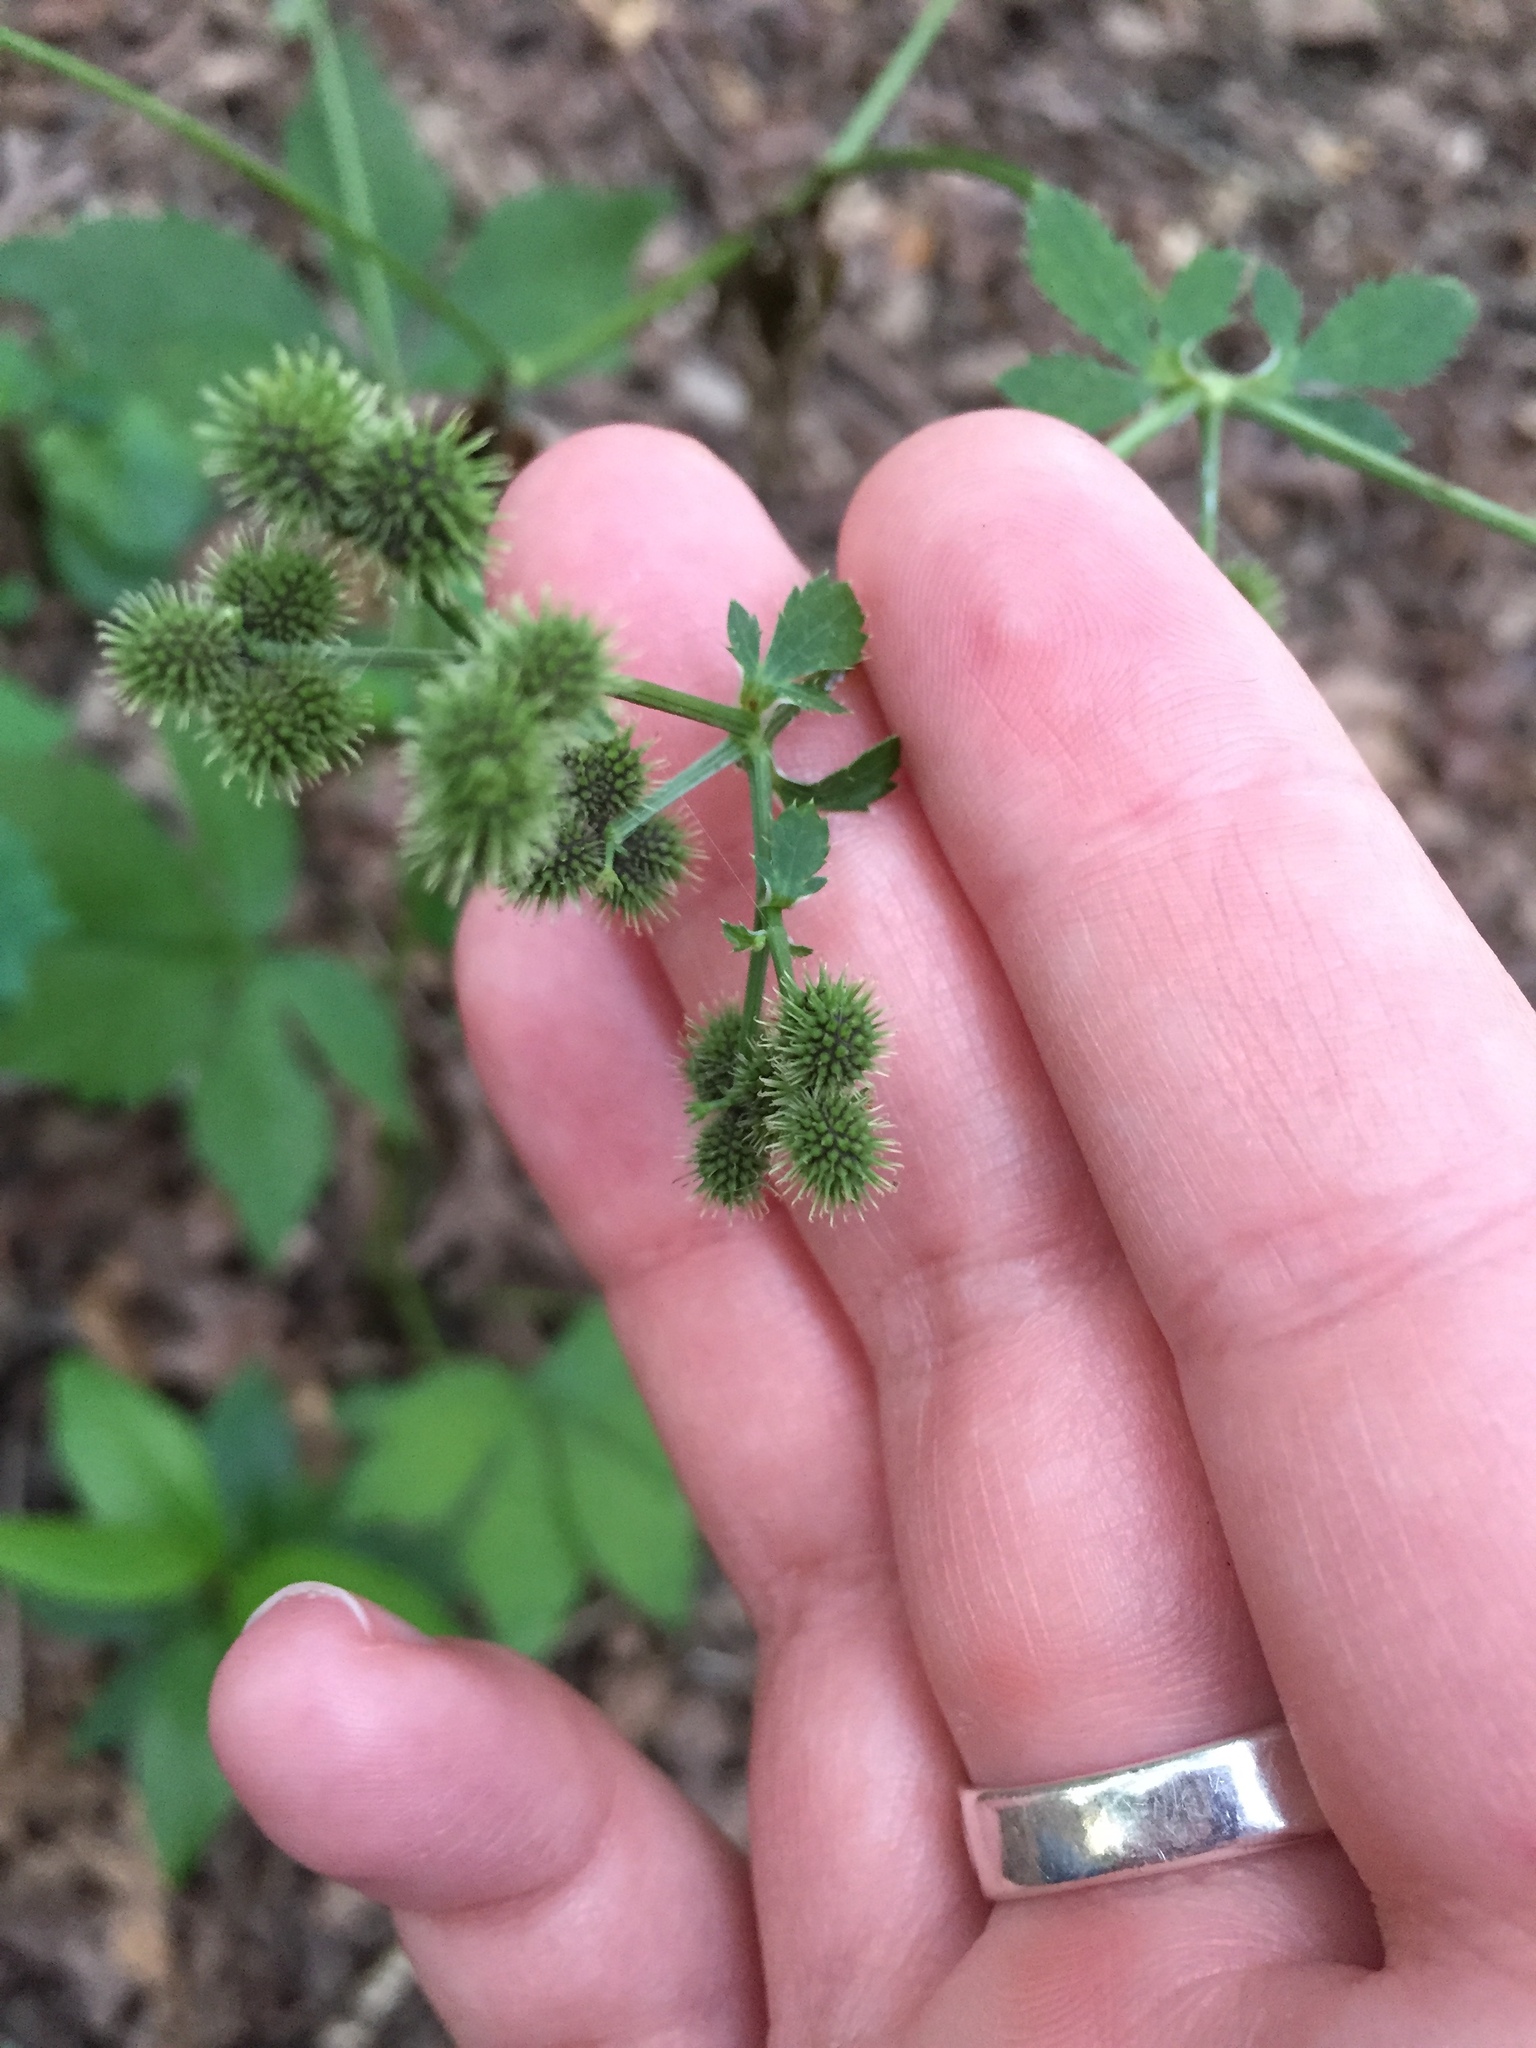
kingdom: Plantae
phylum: Tracheophyta
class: Magnoliopsida
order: Apiales
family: Apiaceae
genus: Sanicula
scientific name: Sanicula canadensis
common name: Canada sanicle
